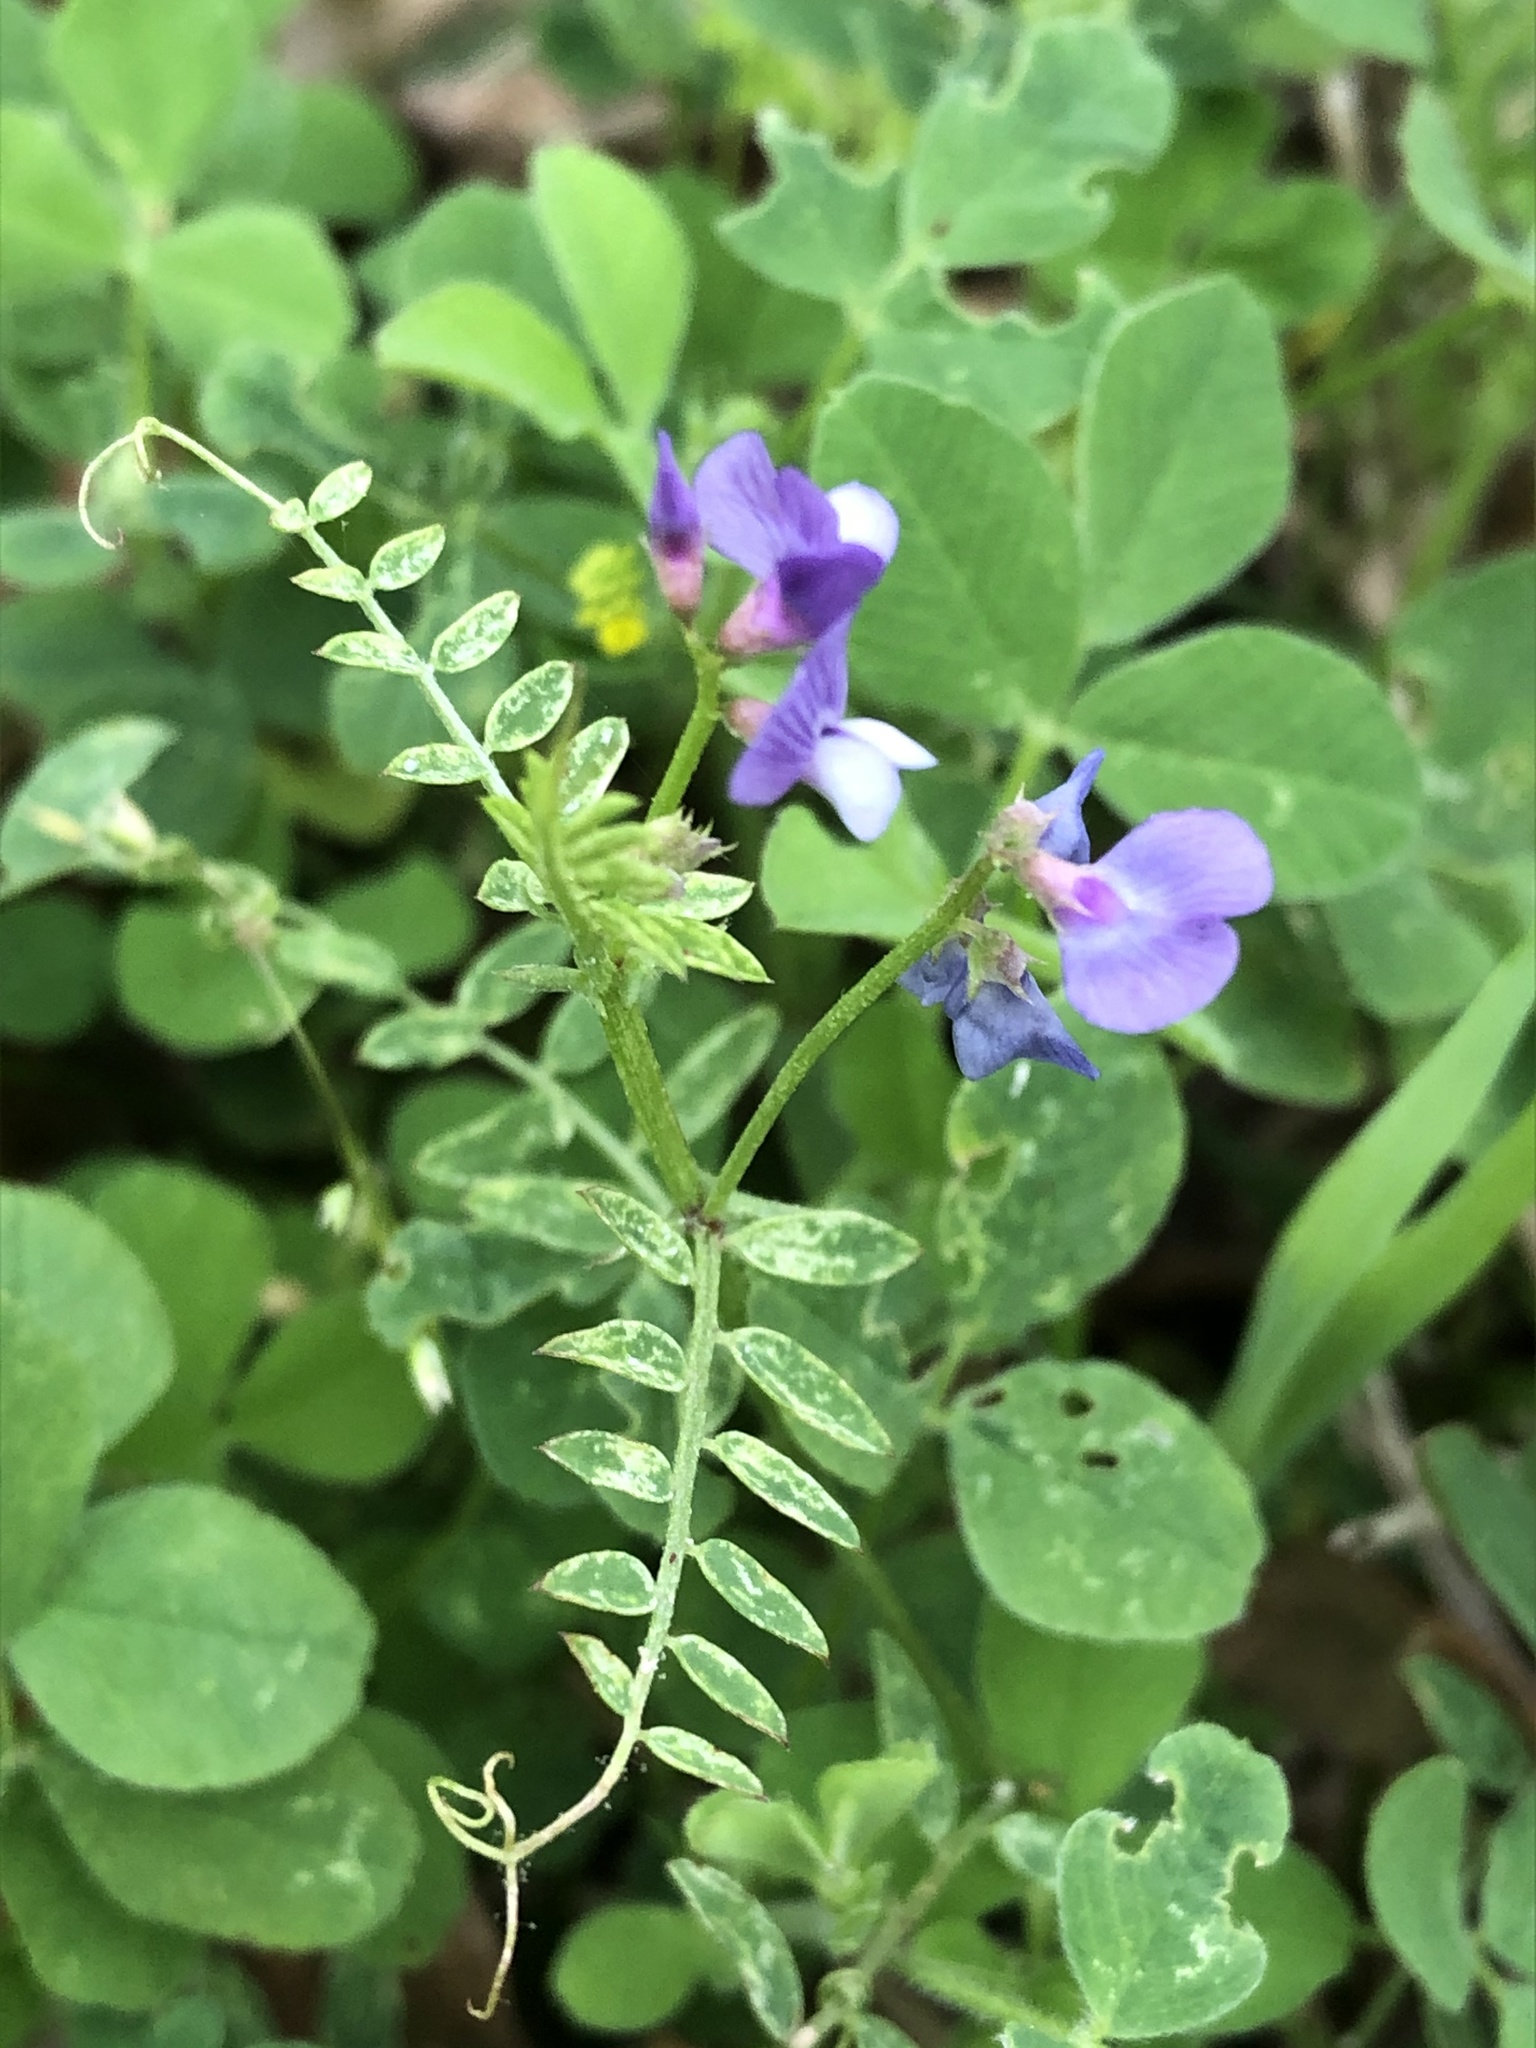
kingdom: Plantae
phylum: Tracheophyta
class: Magnoliopsida
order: Fabales
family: Fabaceae
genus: Vicia
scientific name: Vicia ludoviciana
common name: Louisiana vetch
